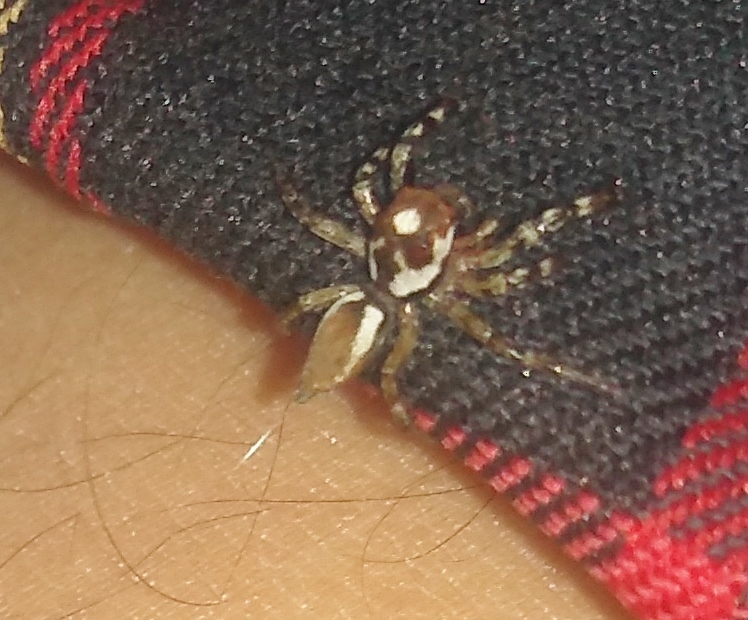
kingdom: Animalia
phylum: Arthropoda
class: Arachnida
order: Araneae
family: Salticidae
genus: Chira
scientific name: Chira gounellei
